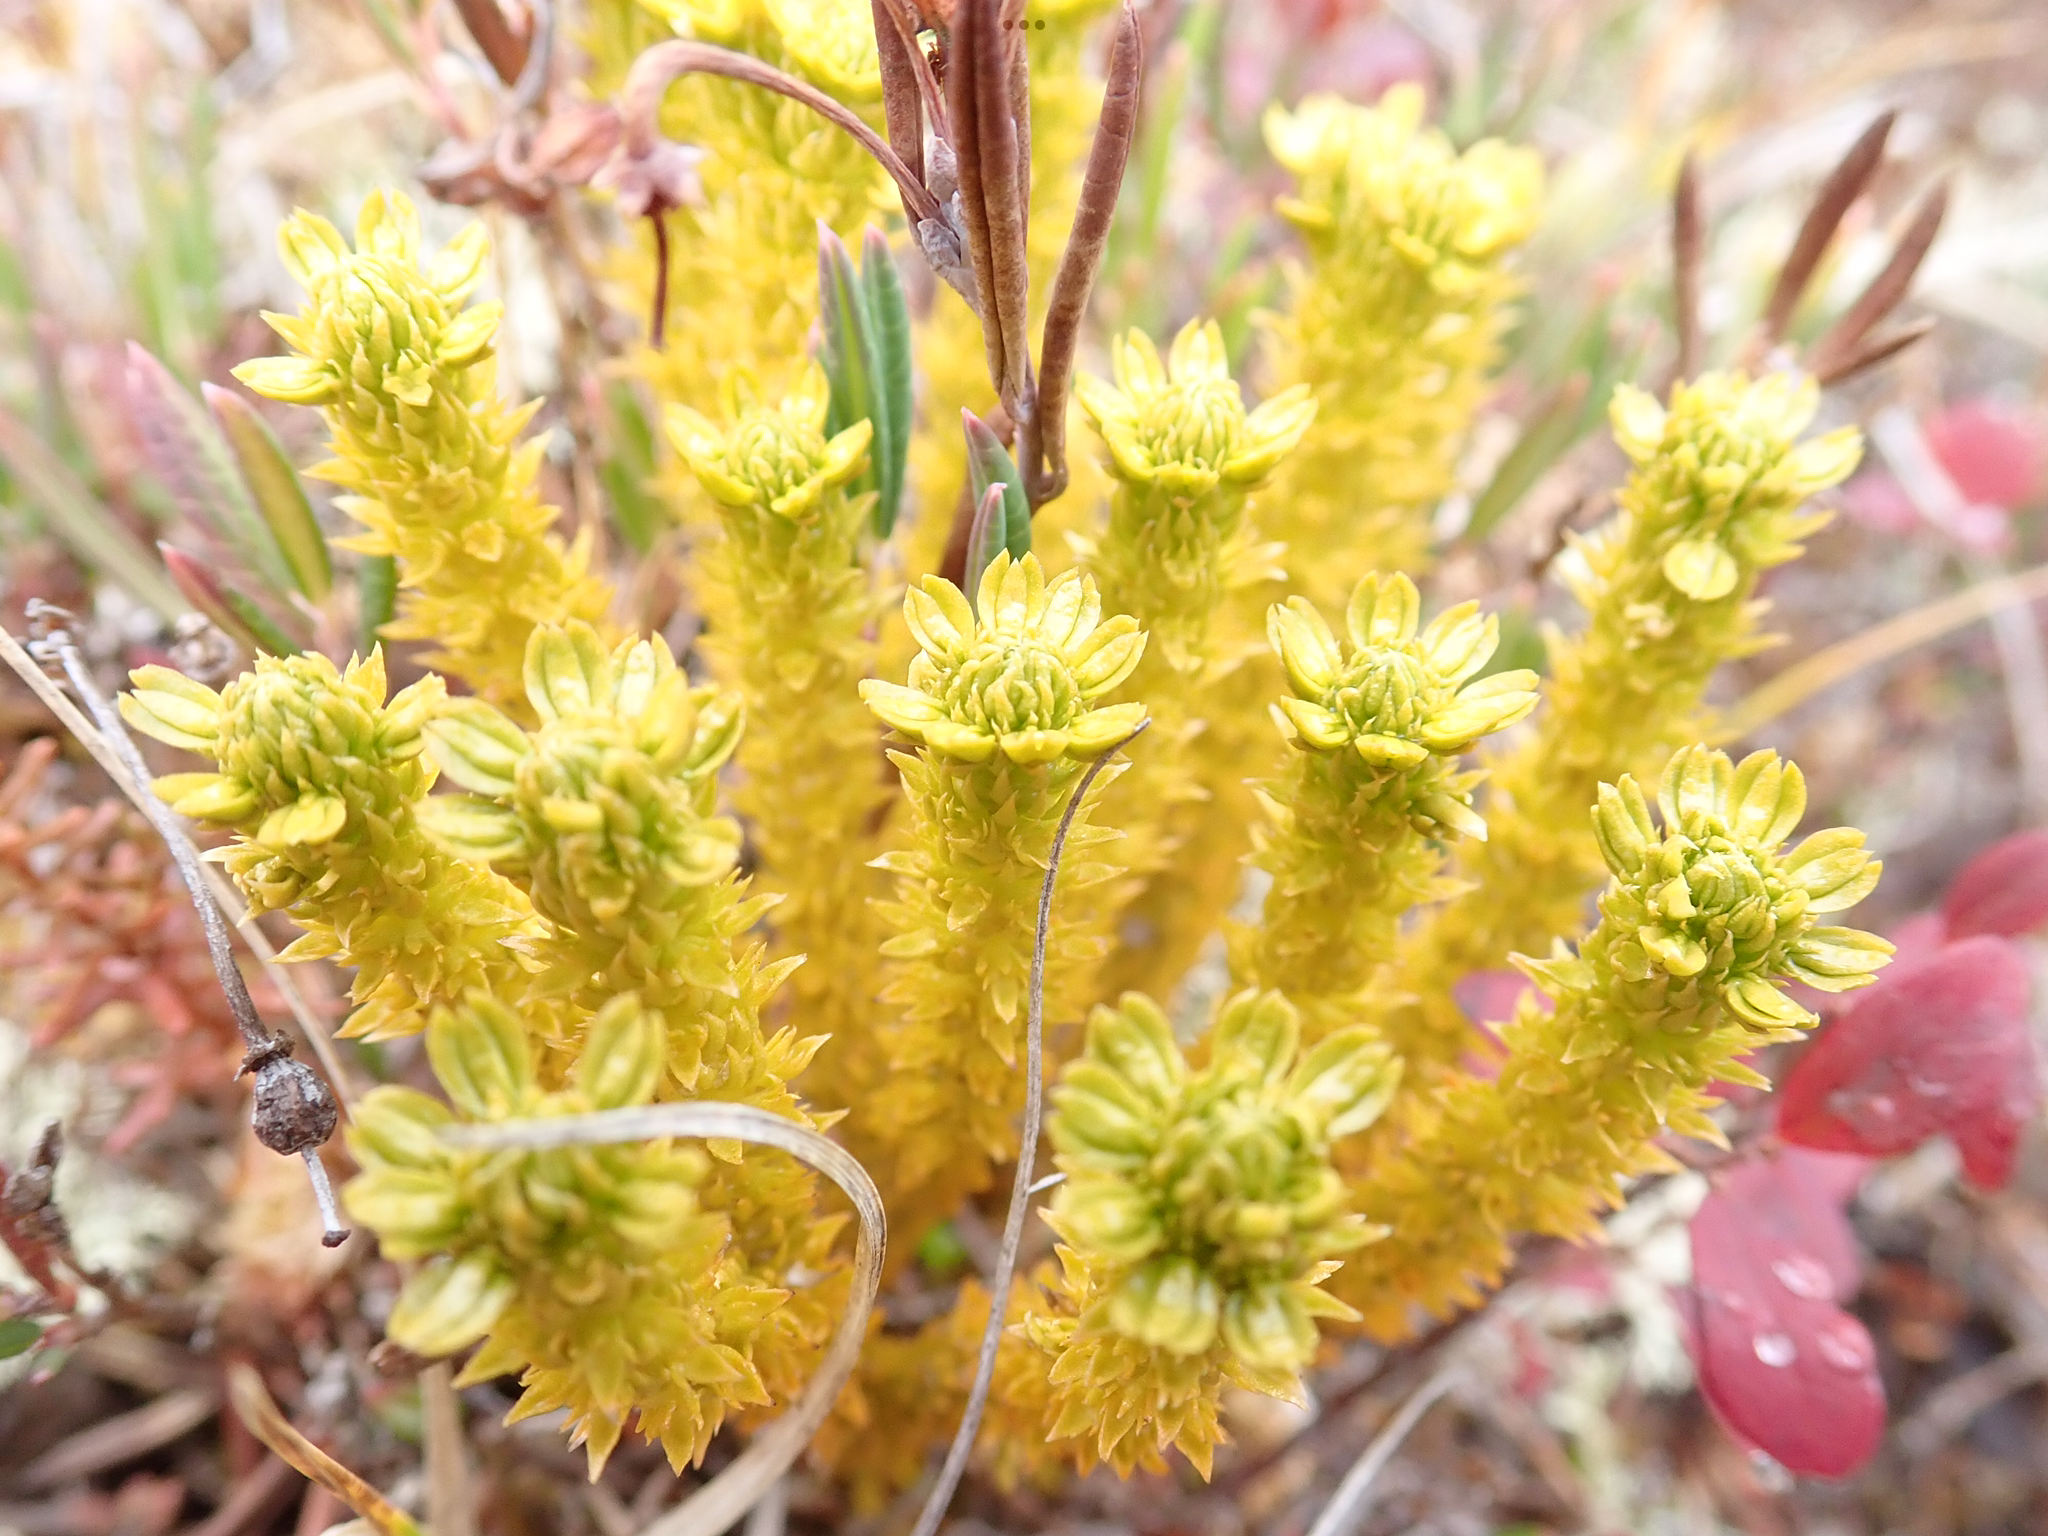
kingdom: Plantae
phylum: Tracheophyta
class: Lycopodiopsida
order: Lycopodiales
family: Lycopodiaceae
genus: Huperzia
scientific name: Huperzia continentalis
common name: Continental firmoss
